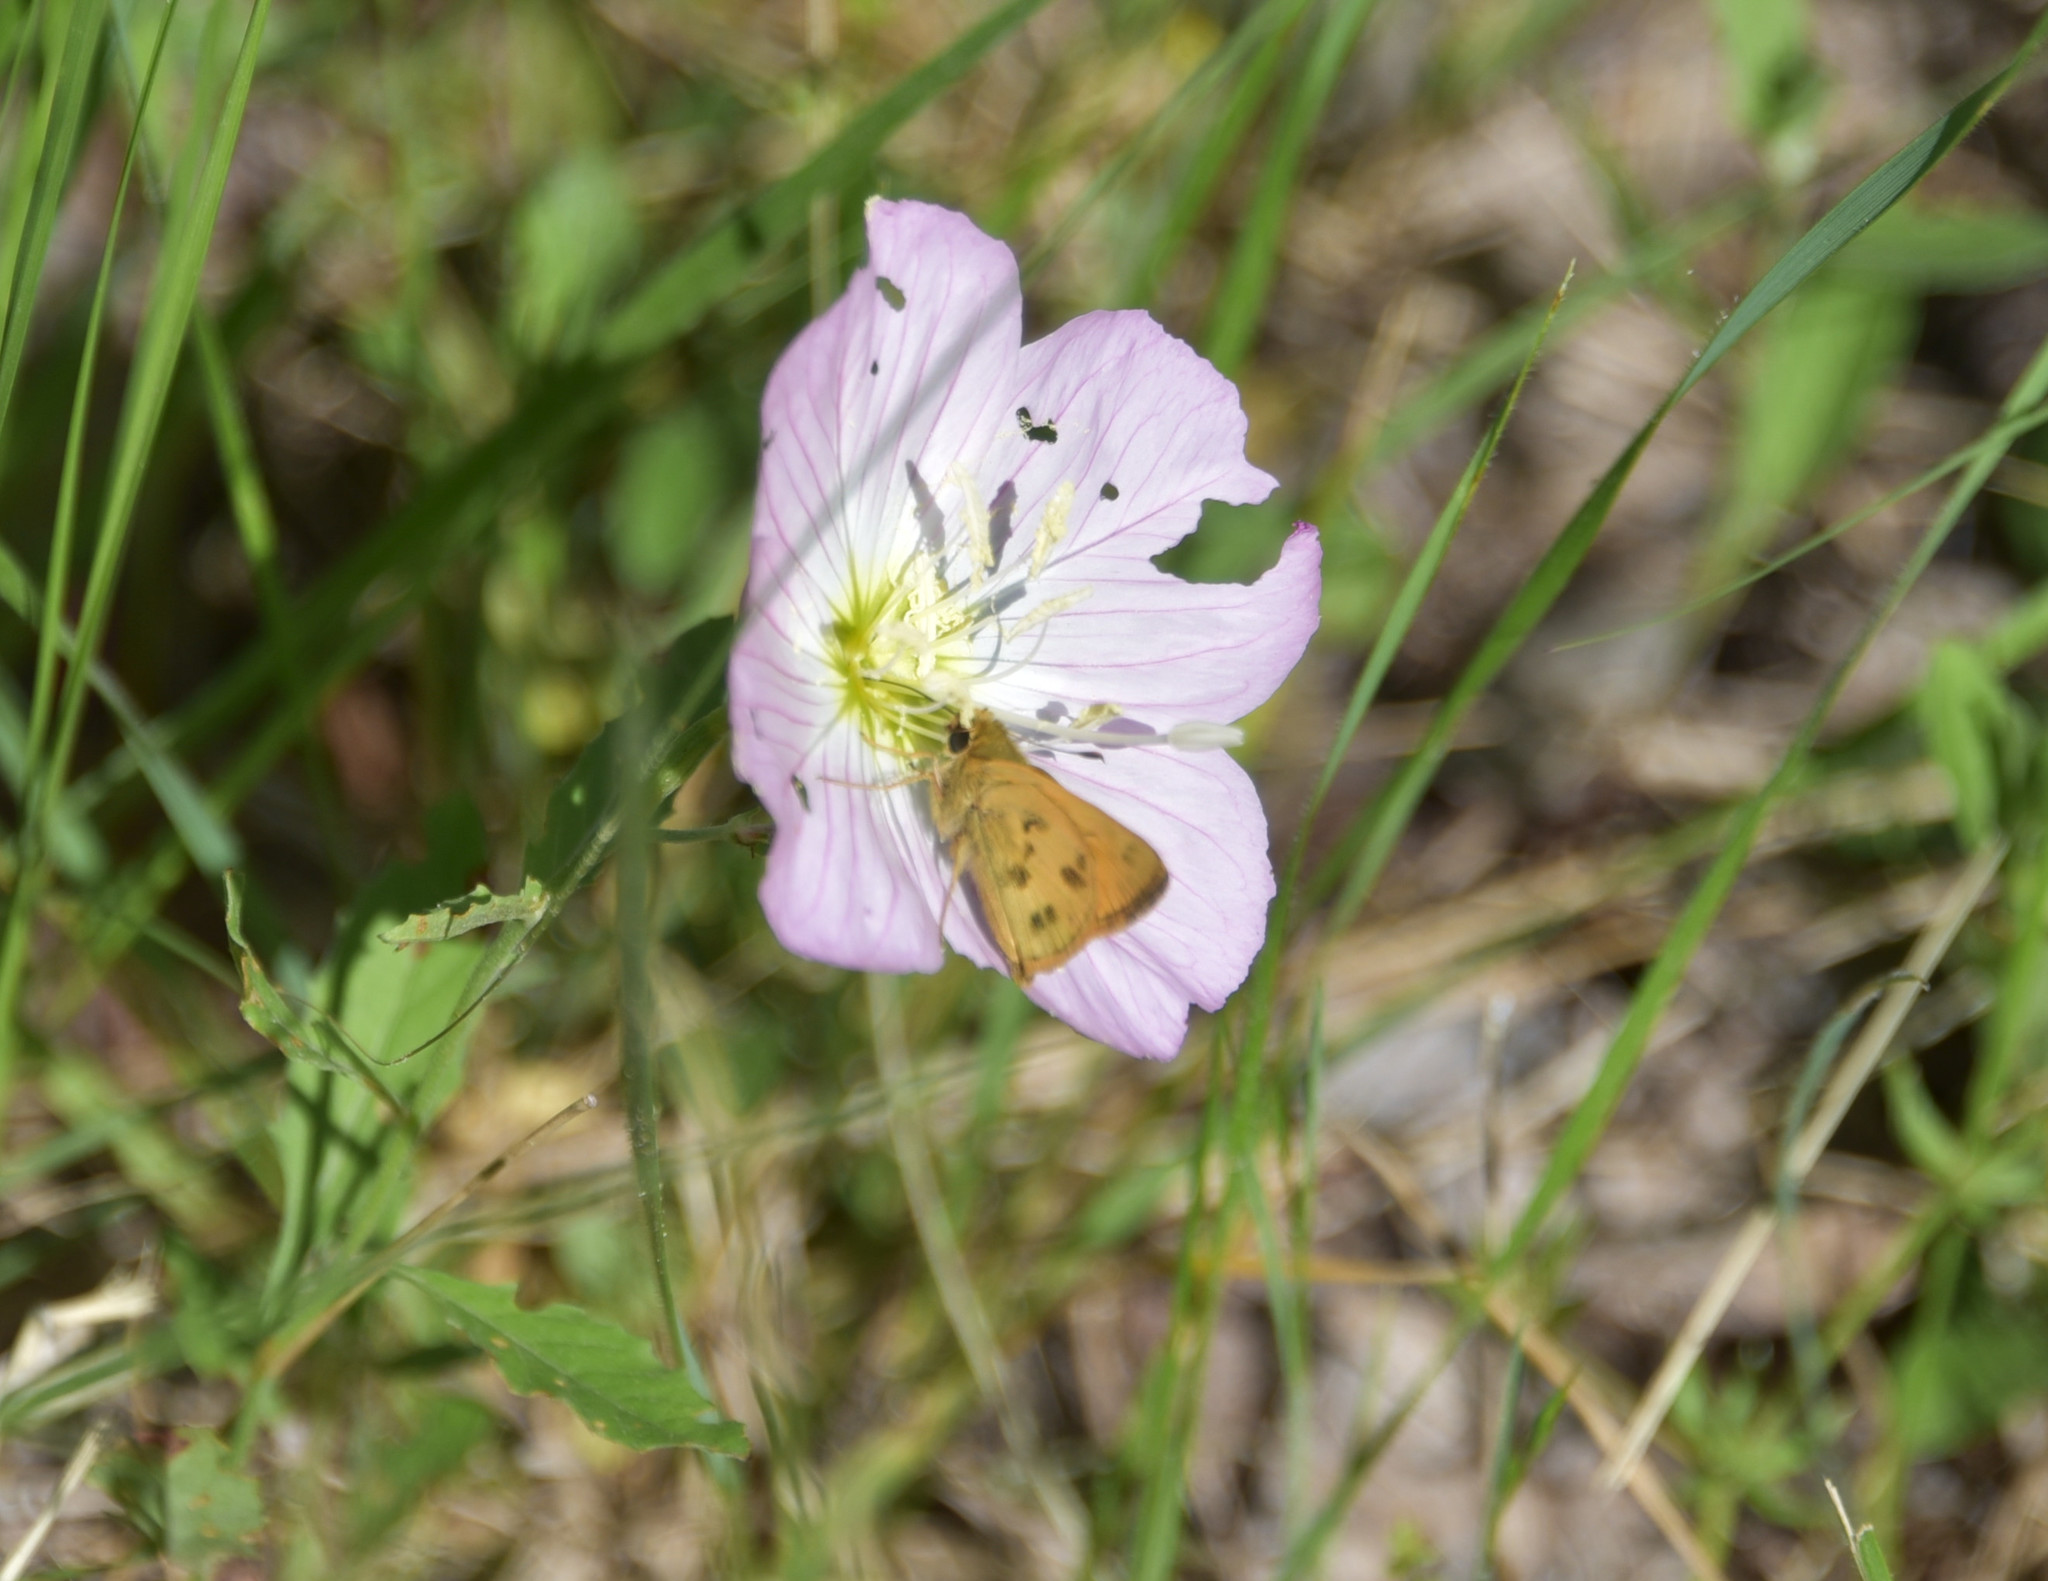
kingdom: Animalia
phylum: Arthropoda
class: Insecta
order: Lepidoptera
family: Hesperiidae
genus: Polites
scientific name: Polites vibex
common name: Whirlabout
